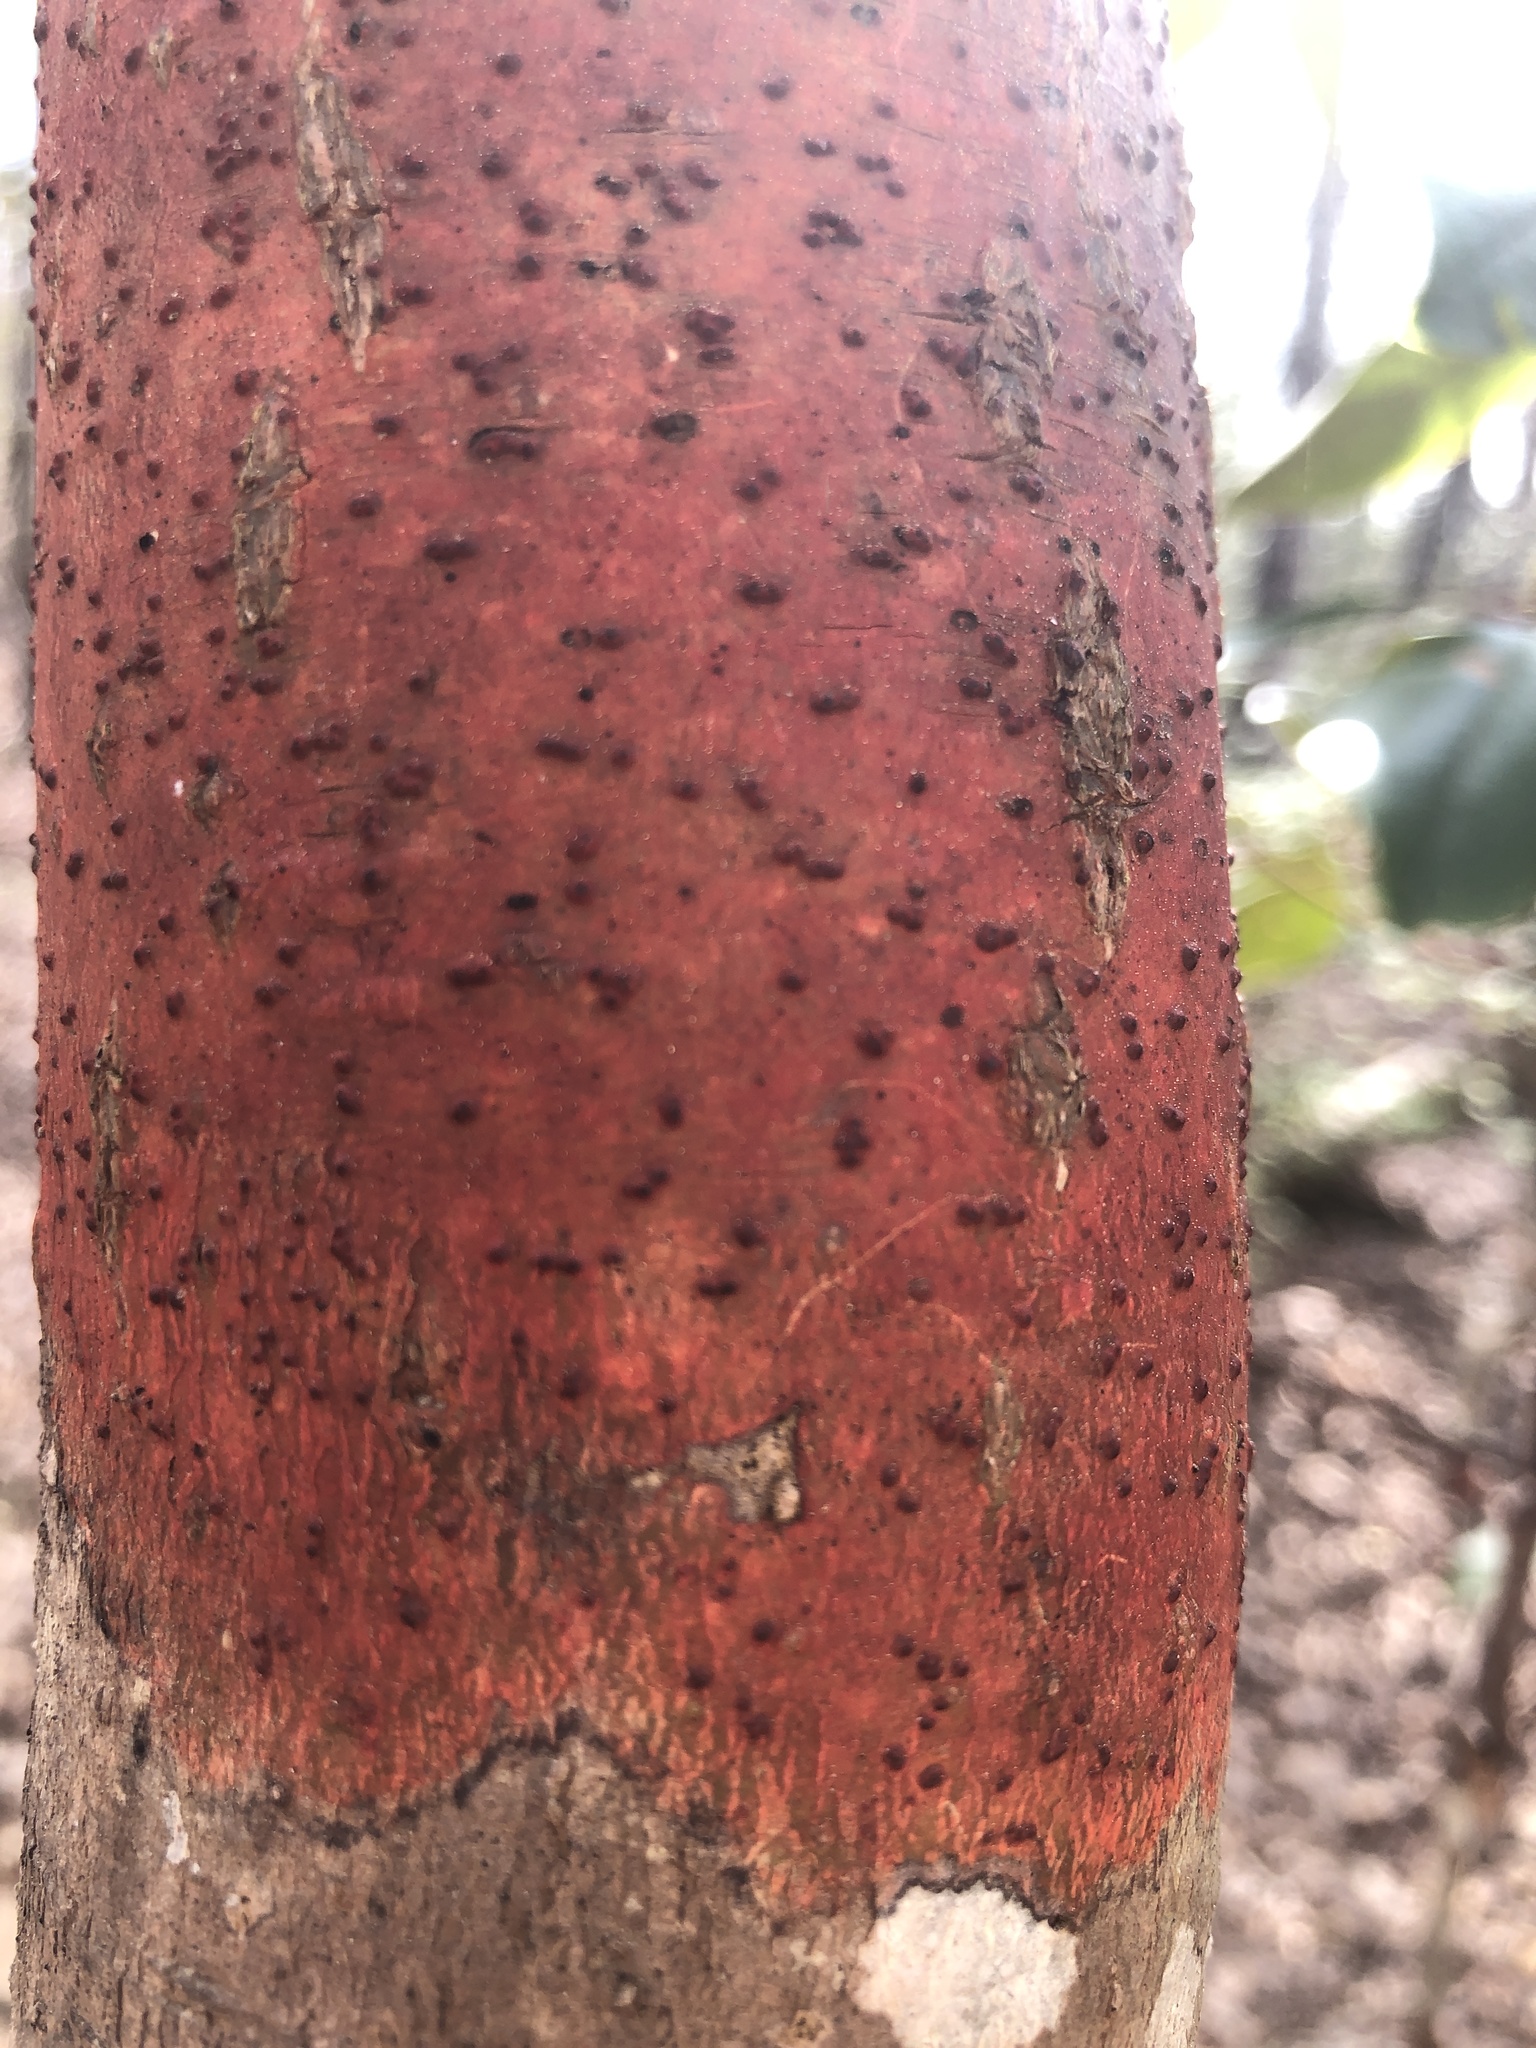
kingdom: Fungi
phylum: Ascomycota
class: Eurotiomycetes
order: Pyrenulales
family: Pyrenulaceae
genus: Pyrenula
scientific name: Pyrenula cruenta
